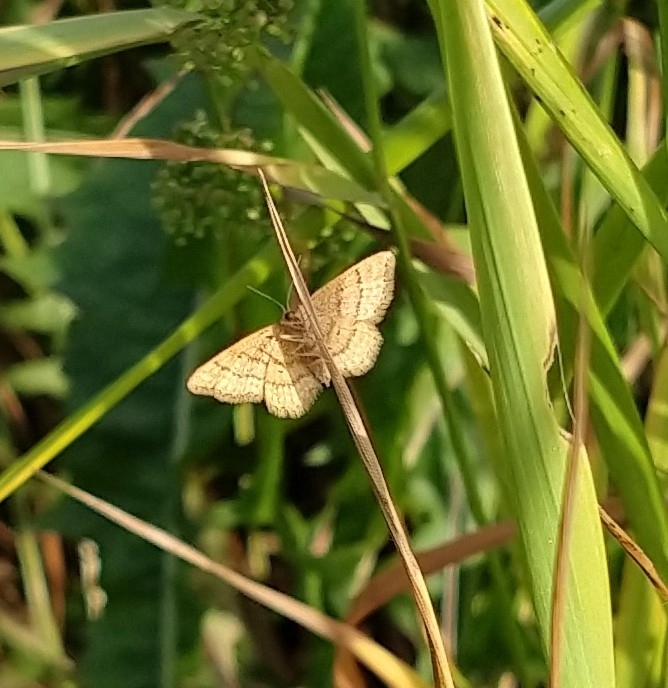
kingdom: Animalia
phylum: Arthropoda
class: Insecta
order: Lepidoptera
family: Geometridae
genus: Idaea
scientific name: Idaea serpentata
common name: Ochraceous wave
